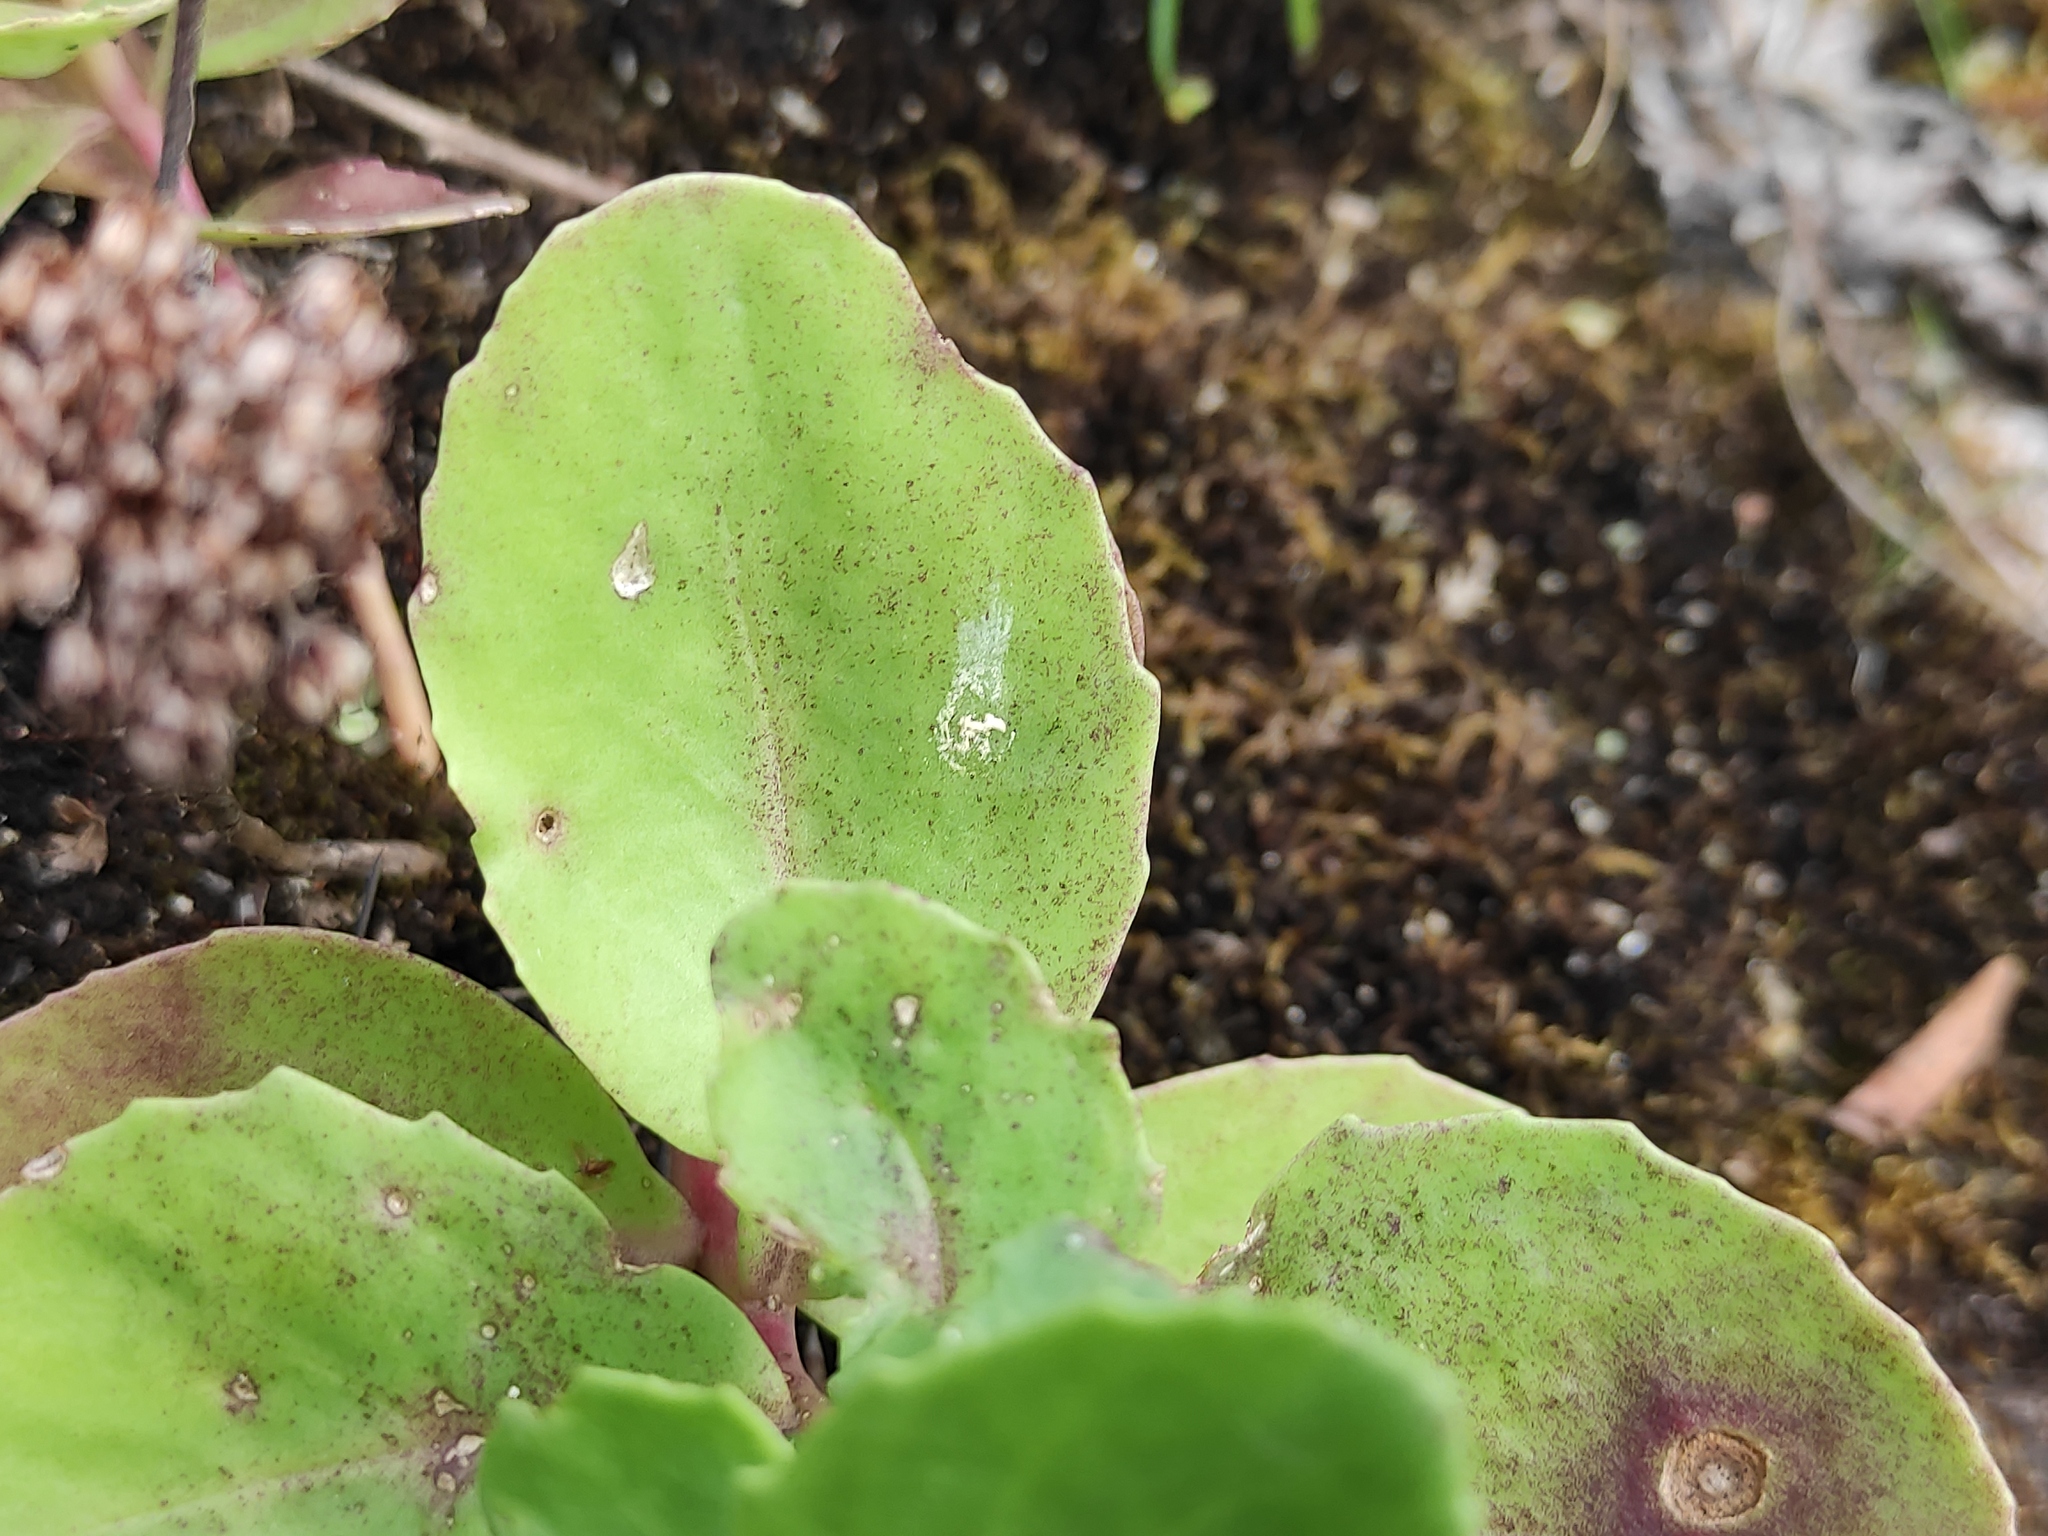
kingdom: Plantae
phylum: Tracheophyta
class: Magnoliopsida
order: Saxifragales
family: Crassulaceae
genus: Hylotelephium
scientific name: Hylotelephium maximum
